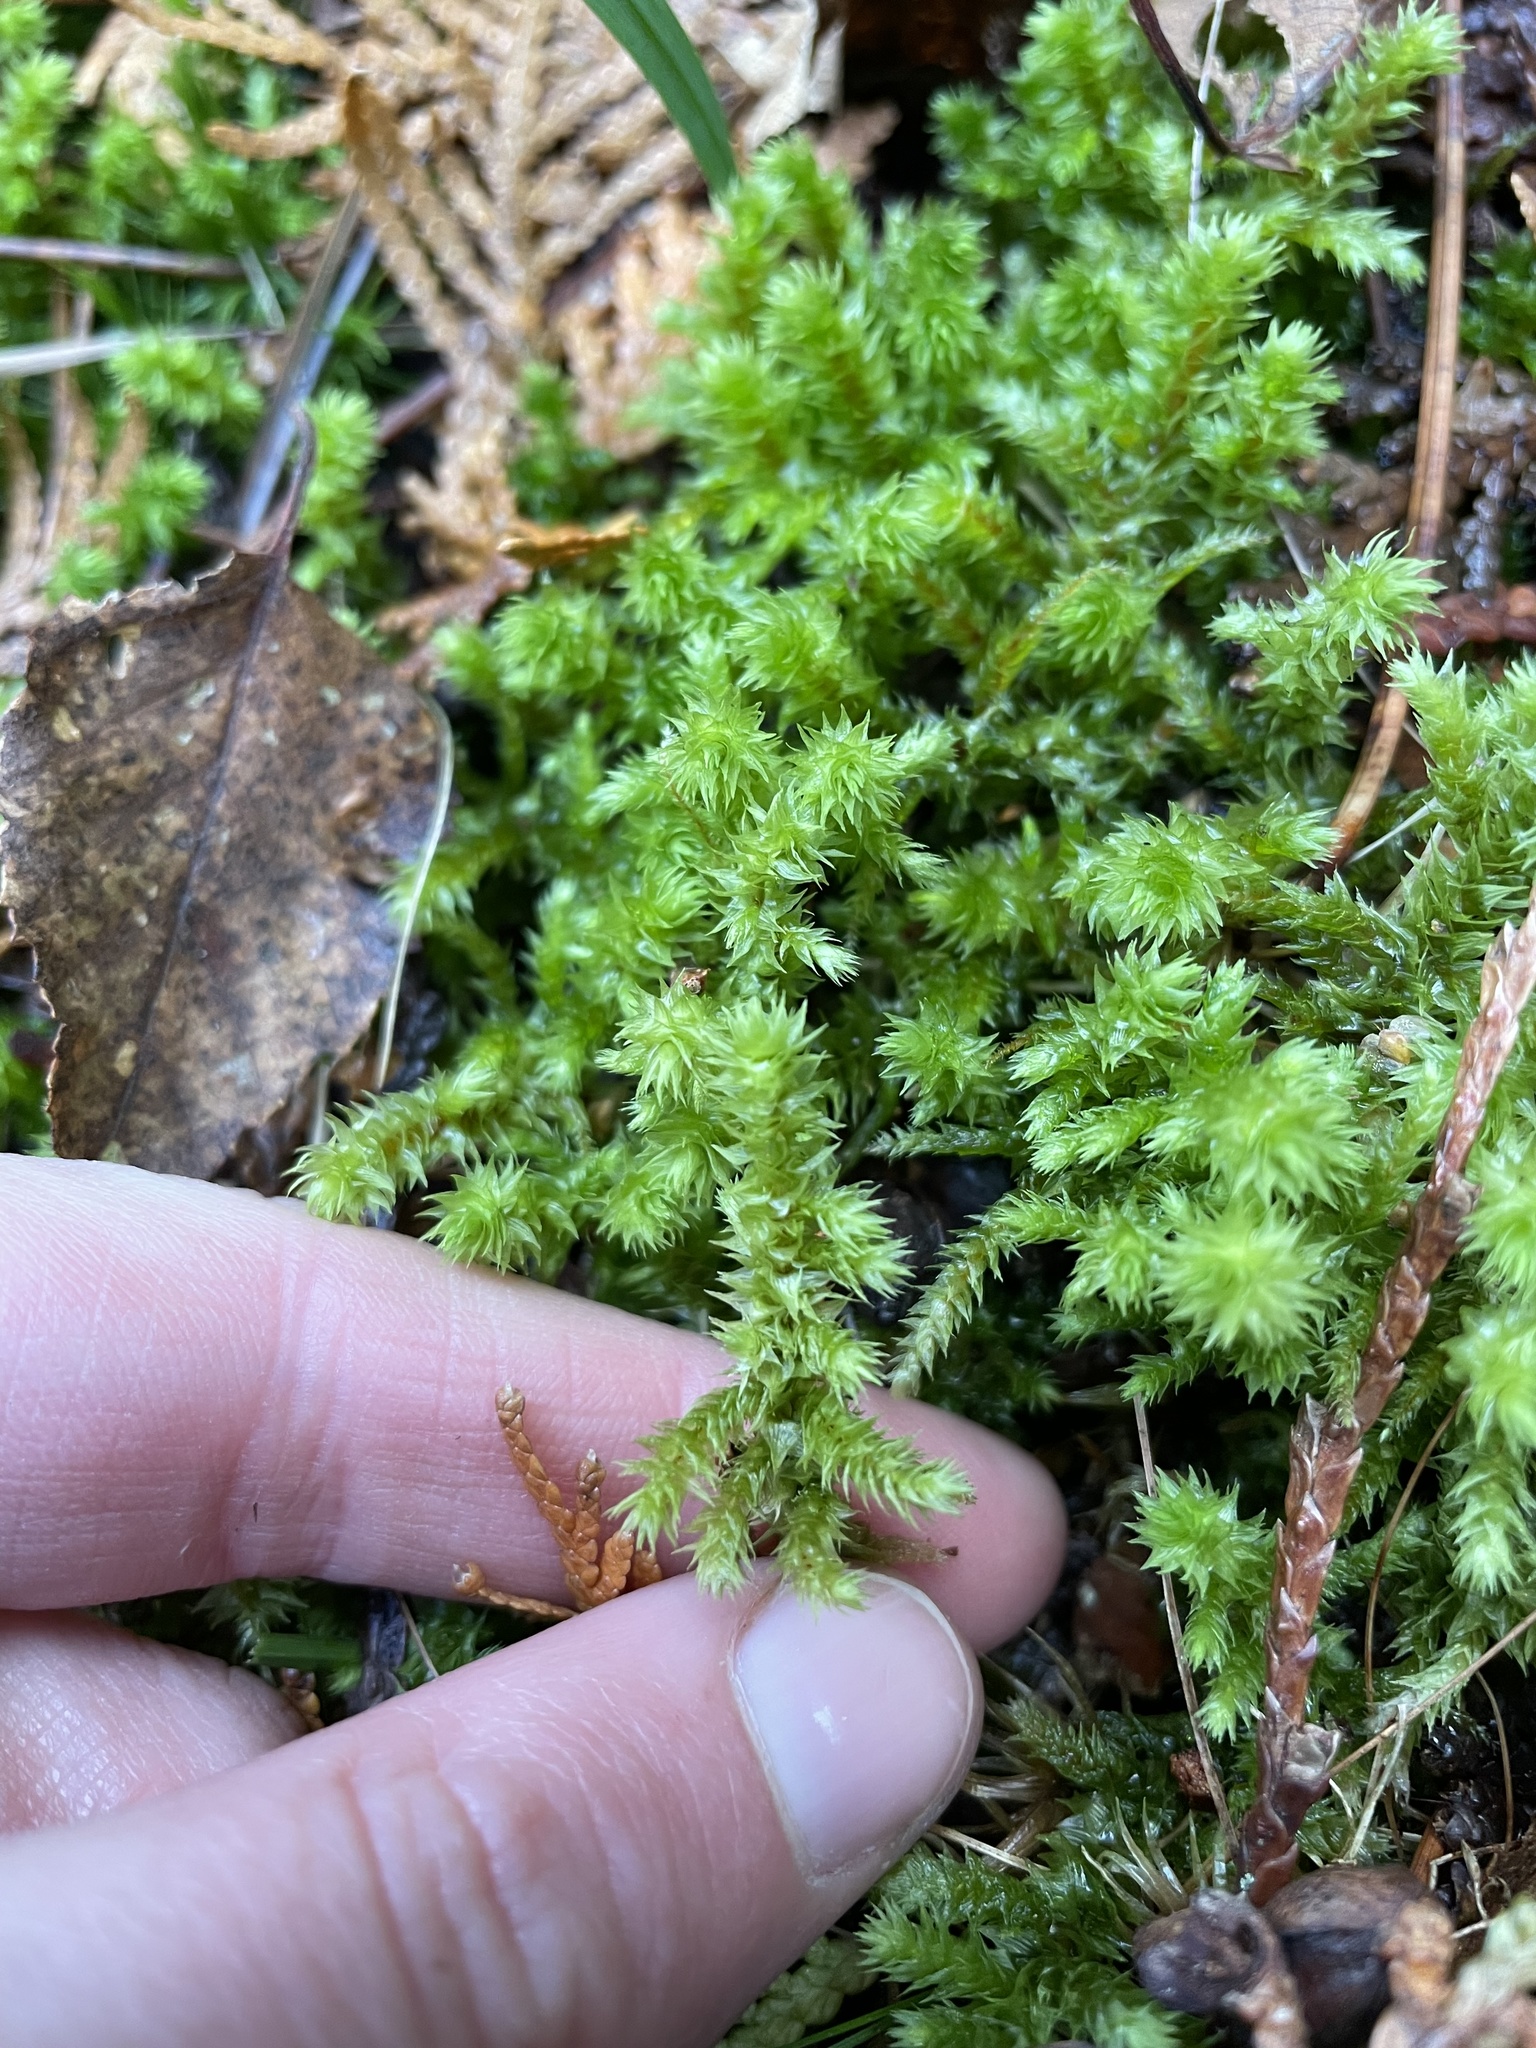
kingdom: Plantae
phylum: Bryophyta
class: Bryopsida
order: Hypnales
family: Hylocomiaceae
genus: Hylocomiadelphus
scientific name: Hylocomiadelphus triquetrus
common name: Rough goose neck moss
